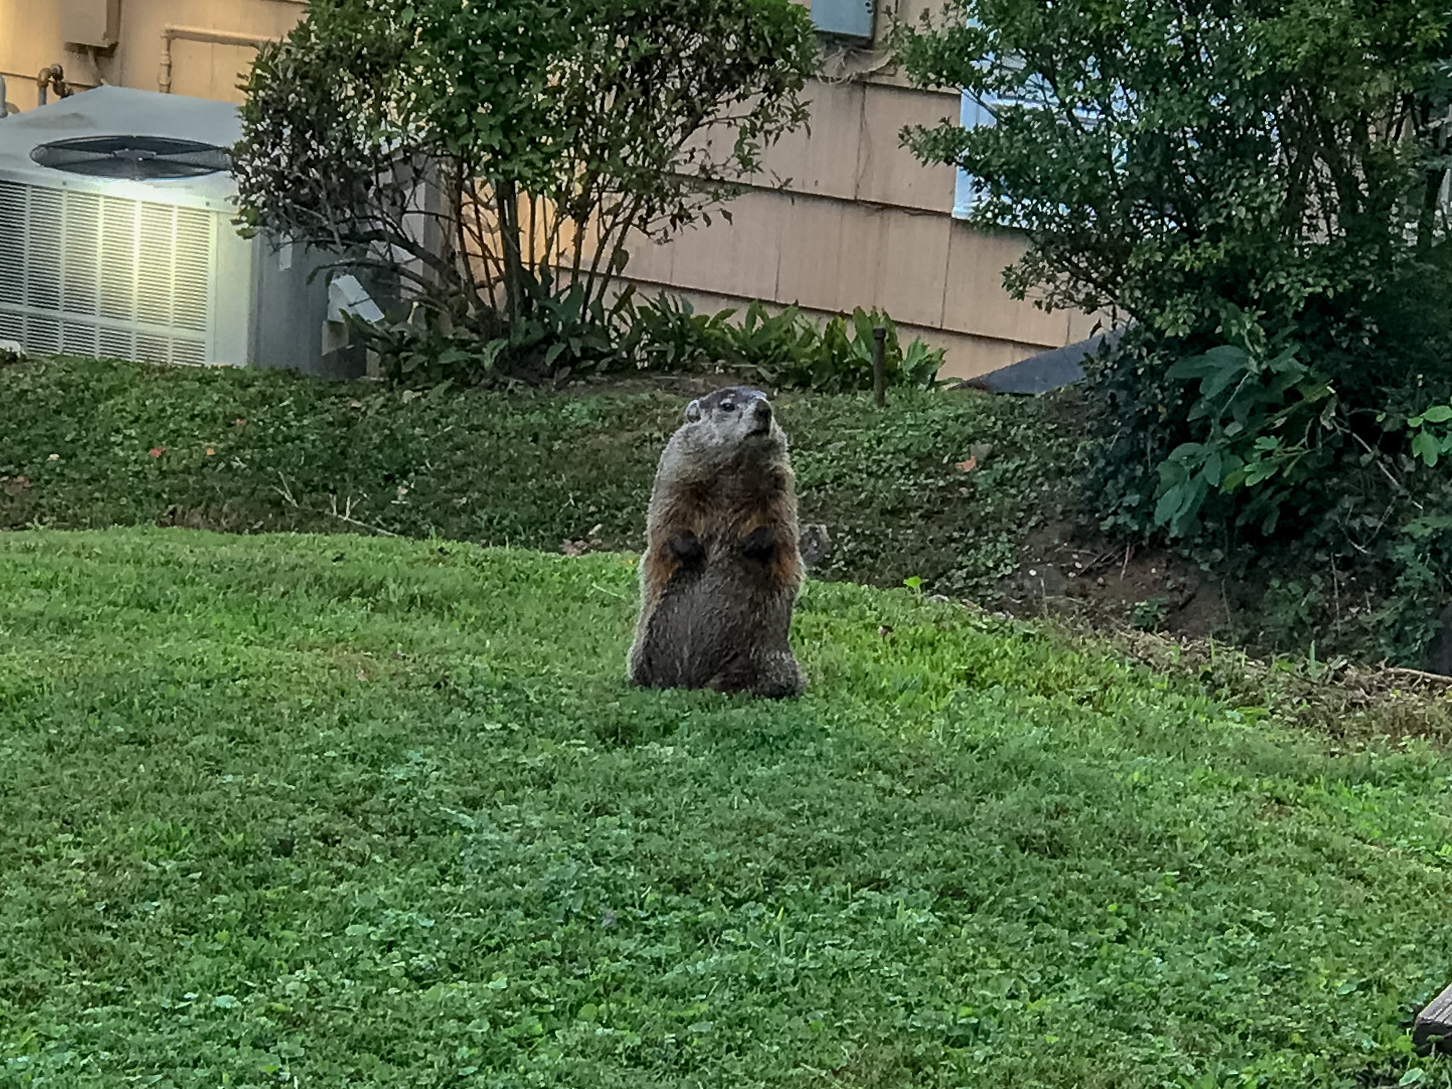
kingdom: Animalia
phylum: Chordata
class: Mammalia
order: Rodentia
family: Sciuridae
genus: Marmota
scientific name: Marmota monax
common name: Groundhog
